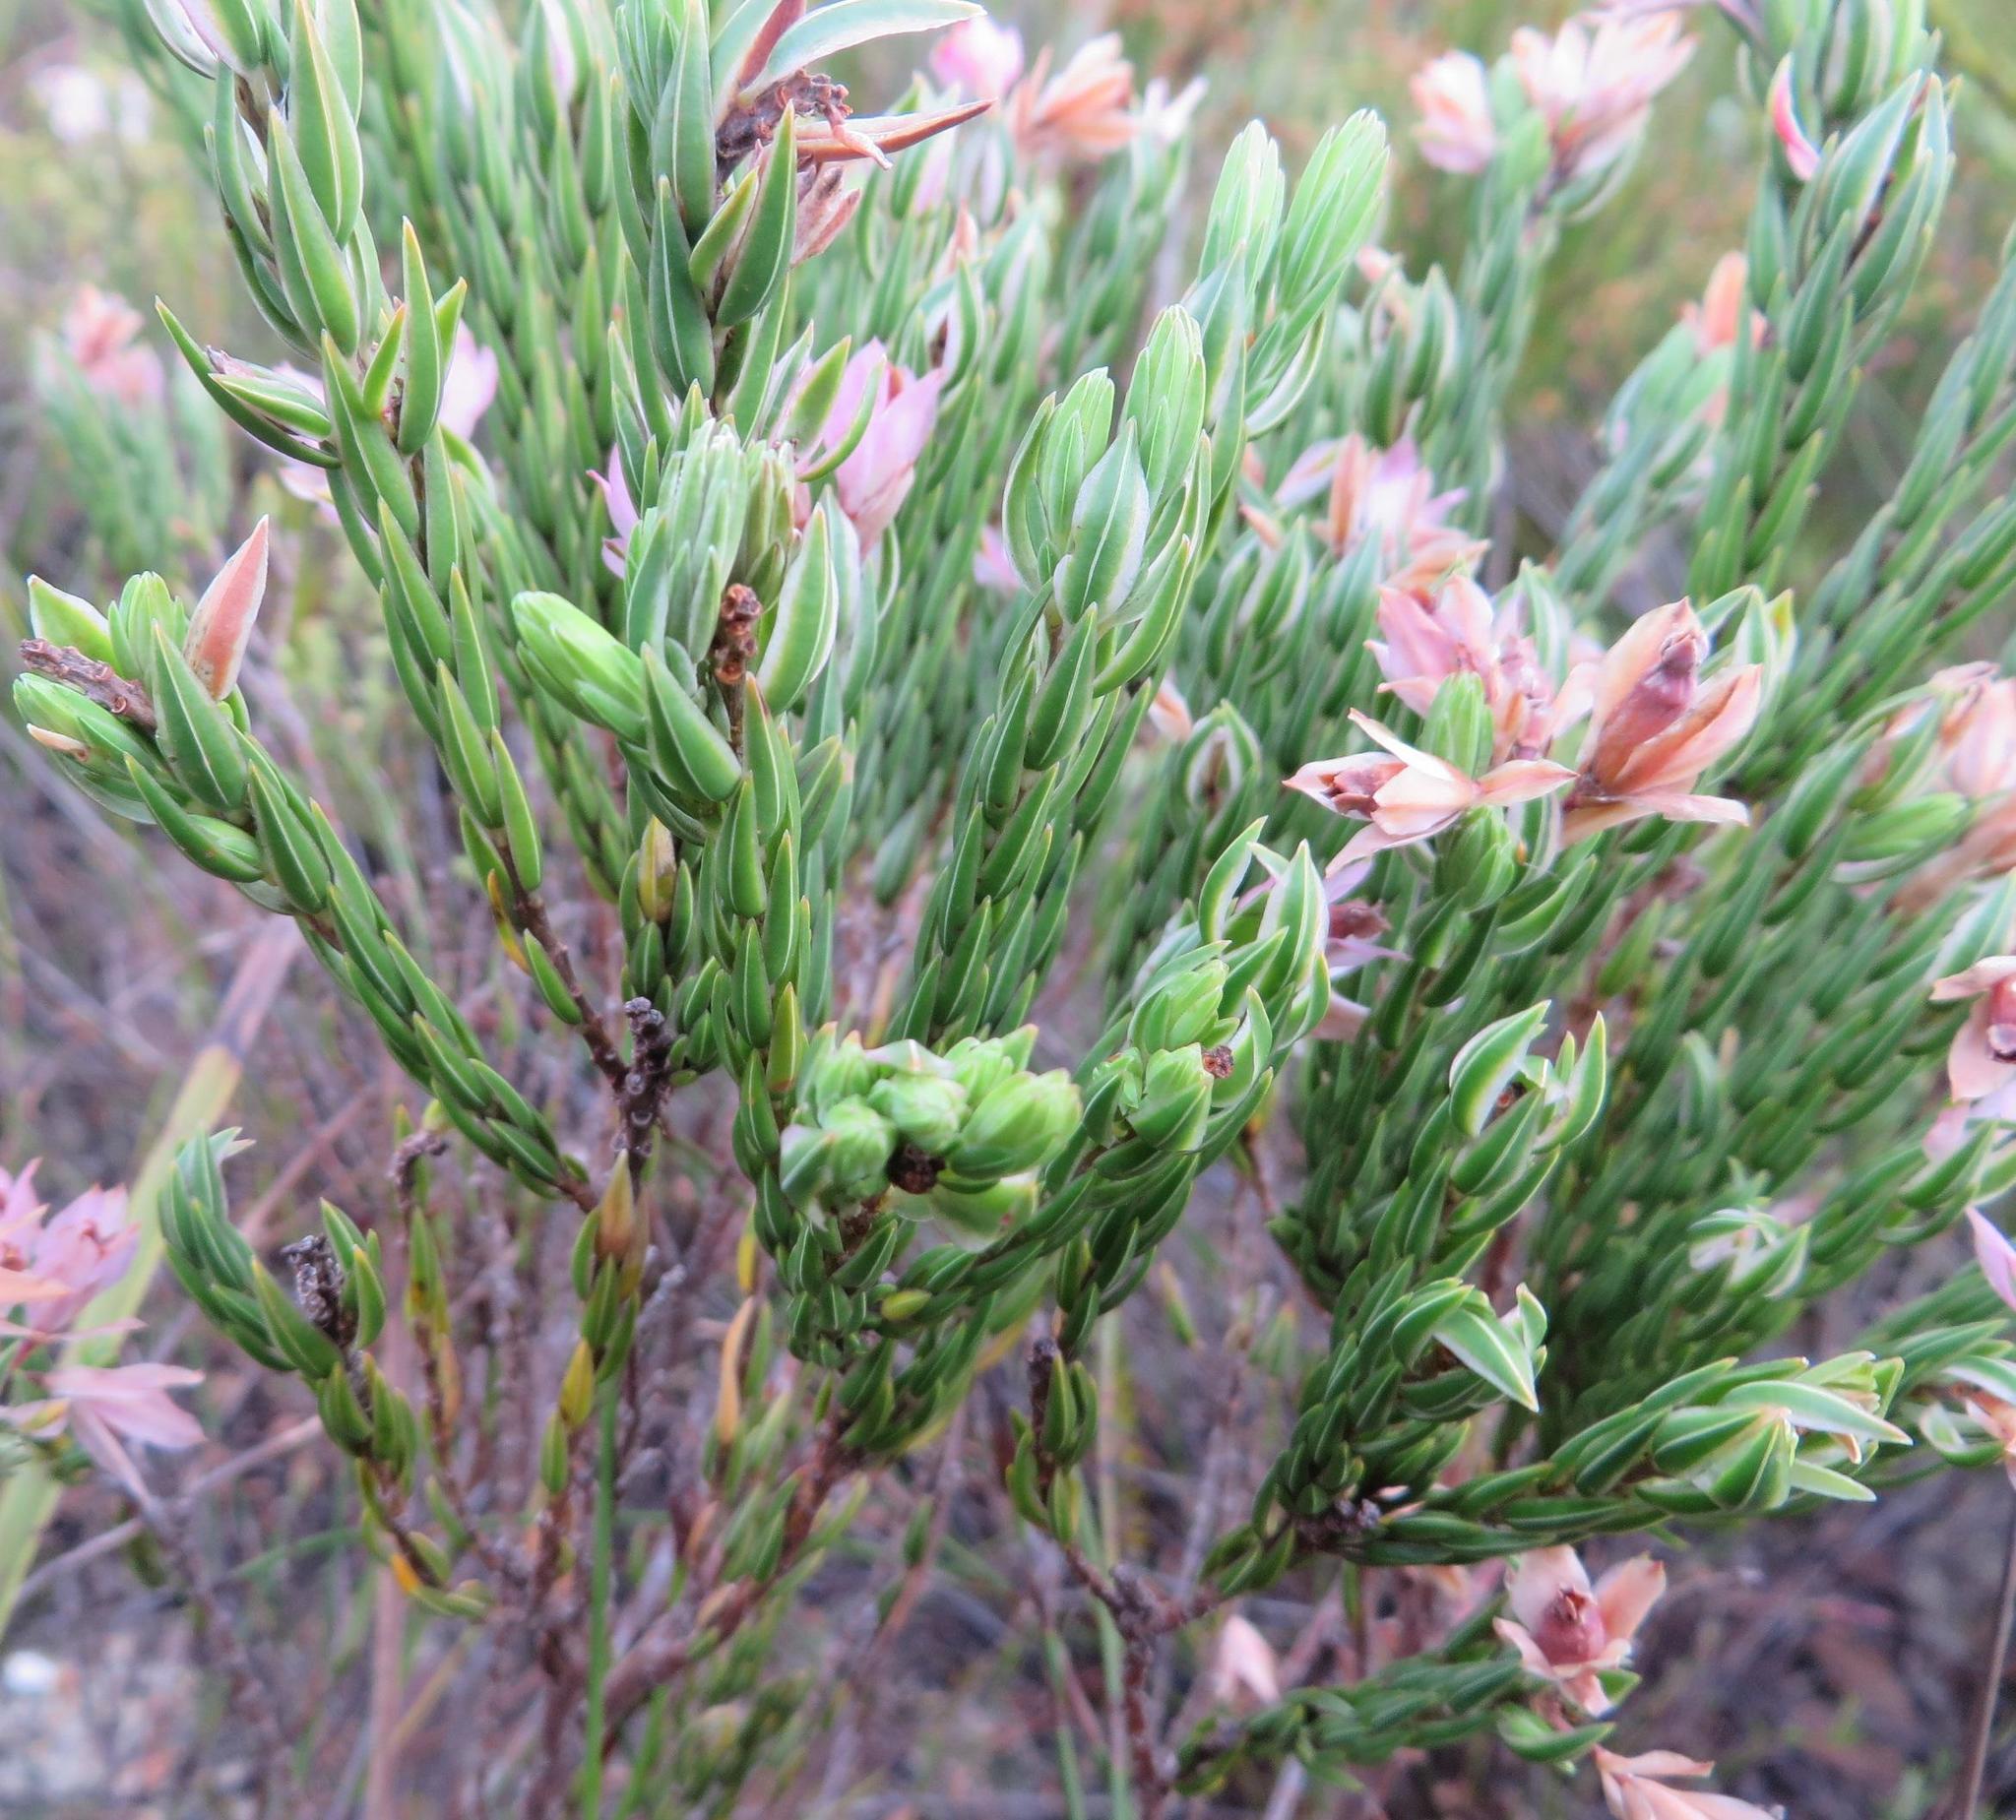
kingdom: Plantae
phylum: Tracheophyta
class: Magnoliopsida
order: Ericales
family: Ericaceae
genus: Erica
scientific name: Erica taxifolia
